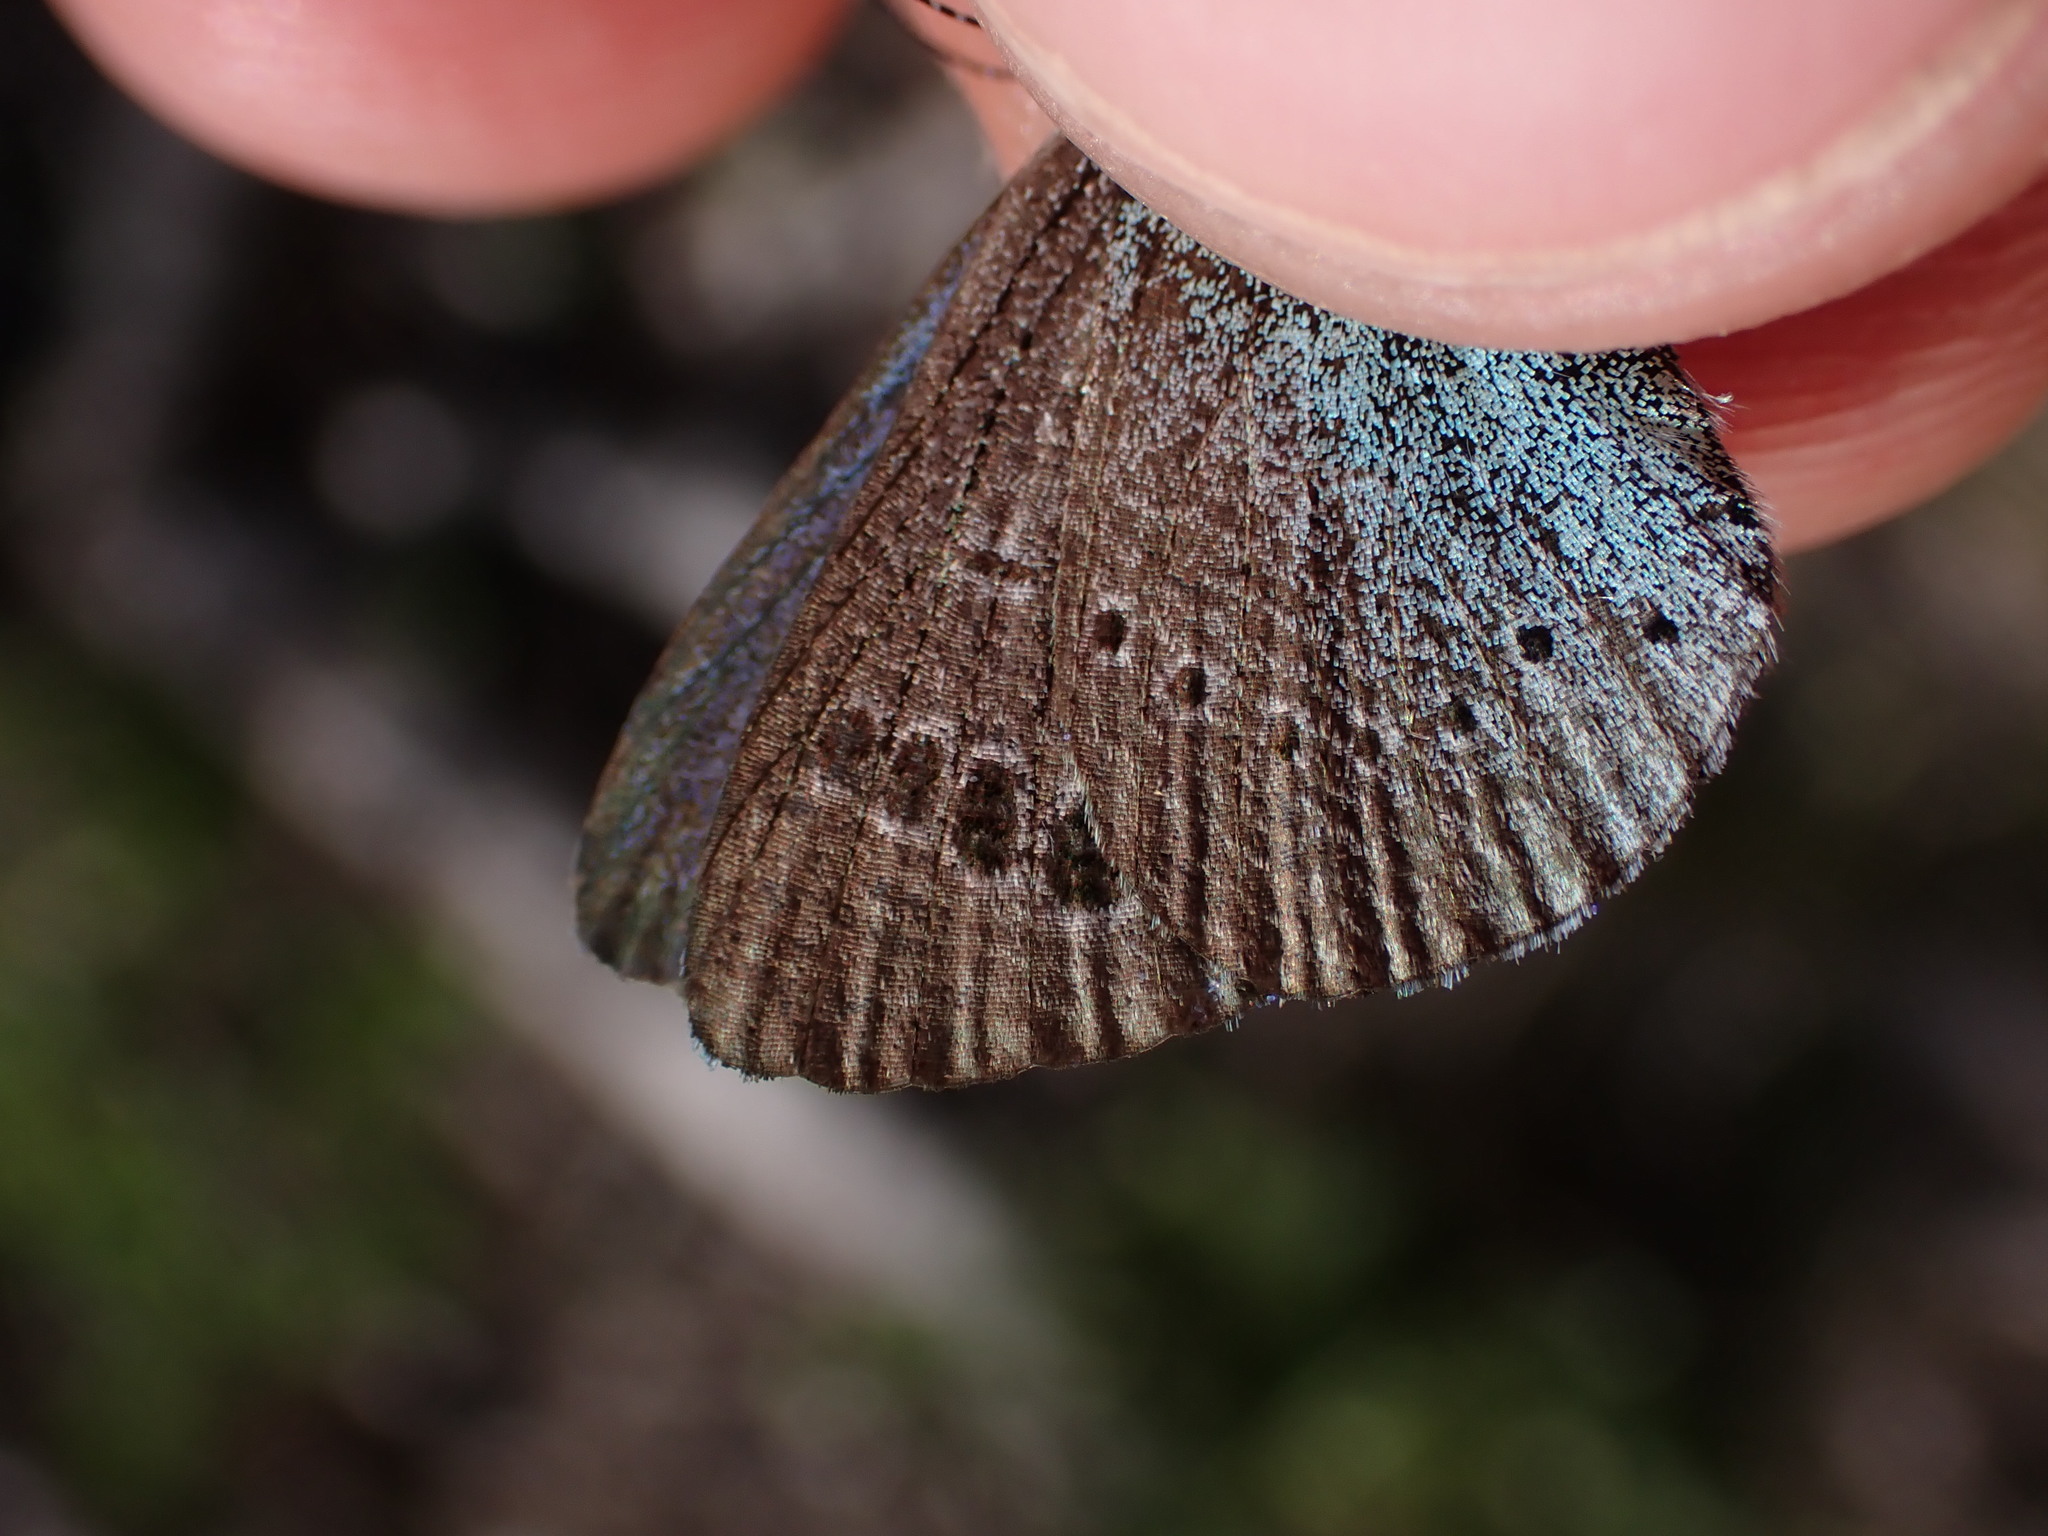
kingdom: Animalia
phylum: Arthropoda
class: Insecta
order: Lepidoptera
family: Lycaenidae
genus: Glaucopsyche
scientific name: Glaucopsyche alexis
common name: Green-underside blue
